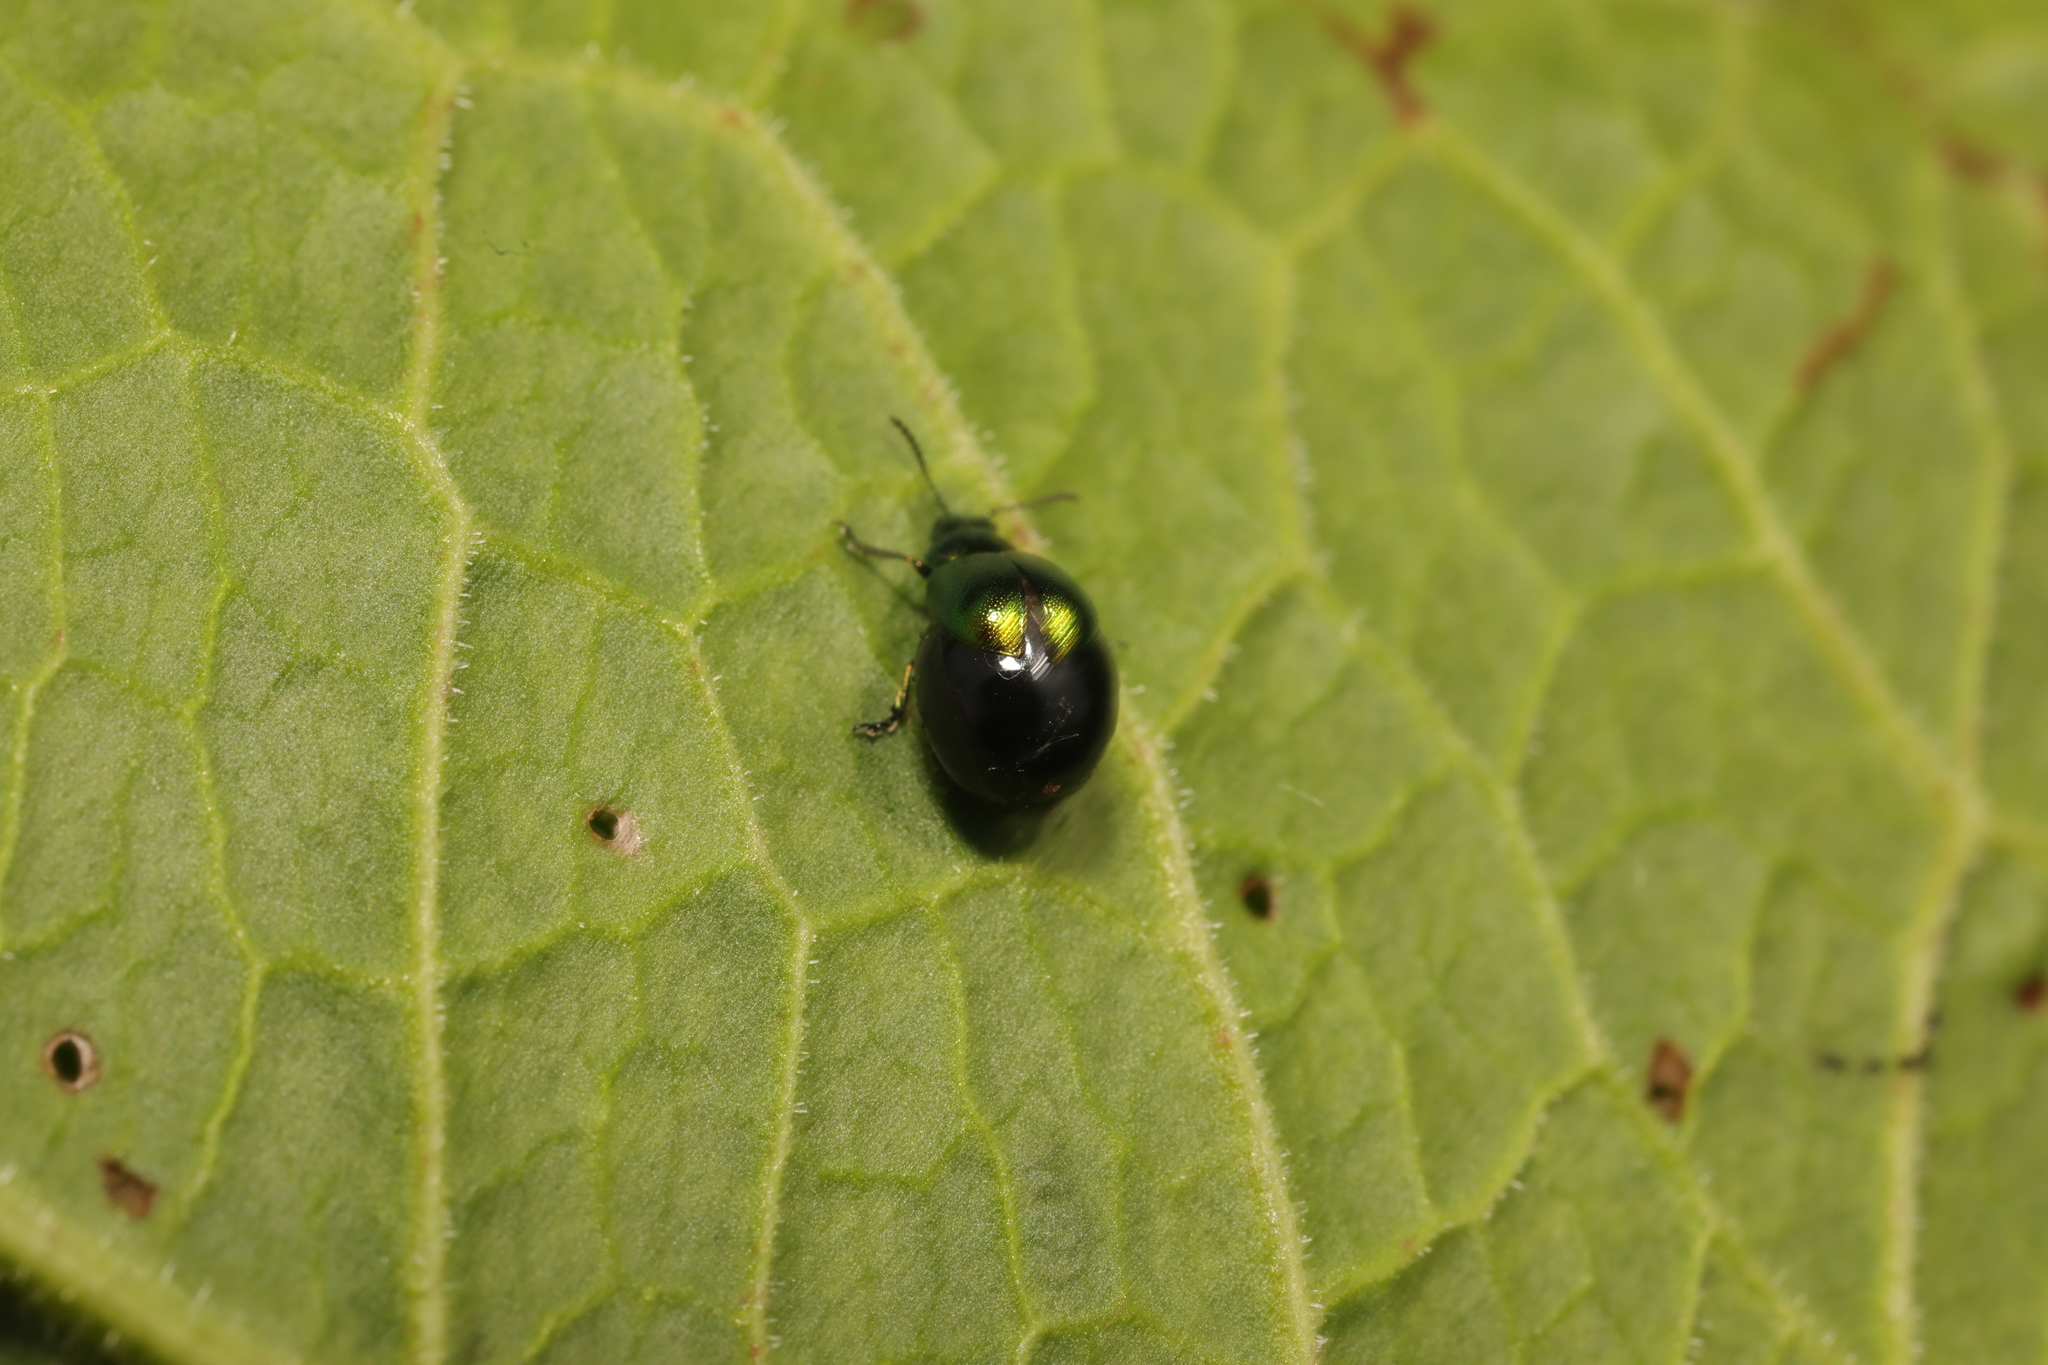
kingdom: Animalia
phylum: Arthropoda
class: Insecta
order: Coleoptera
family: Chrysomelidae
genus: Gastrophysa
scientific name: Gastrophysa viridula
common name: Green dock beetle
